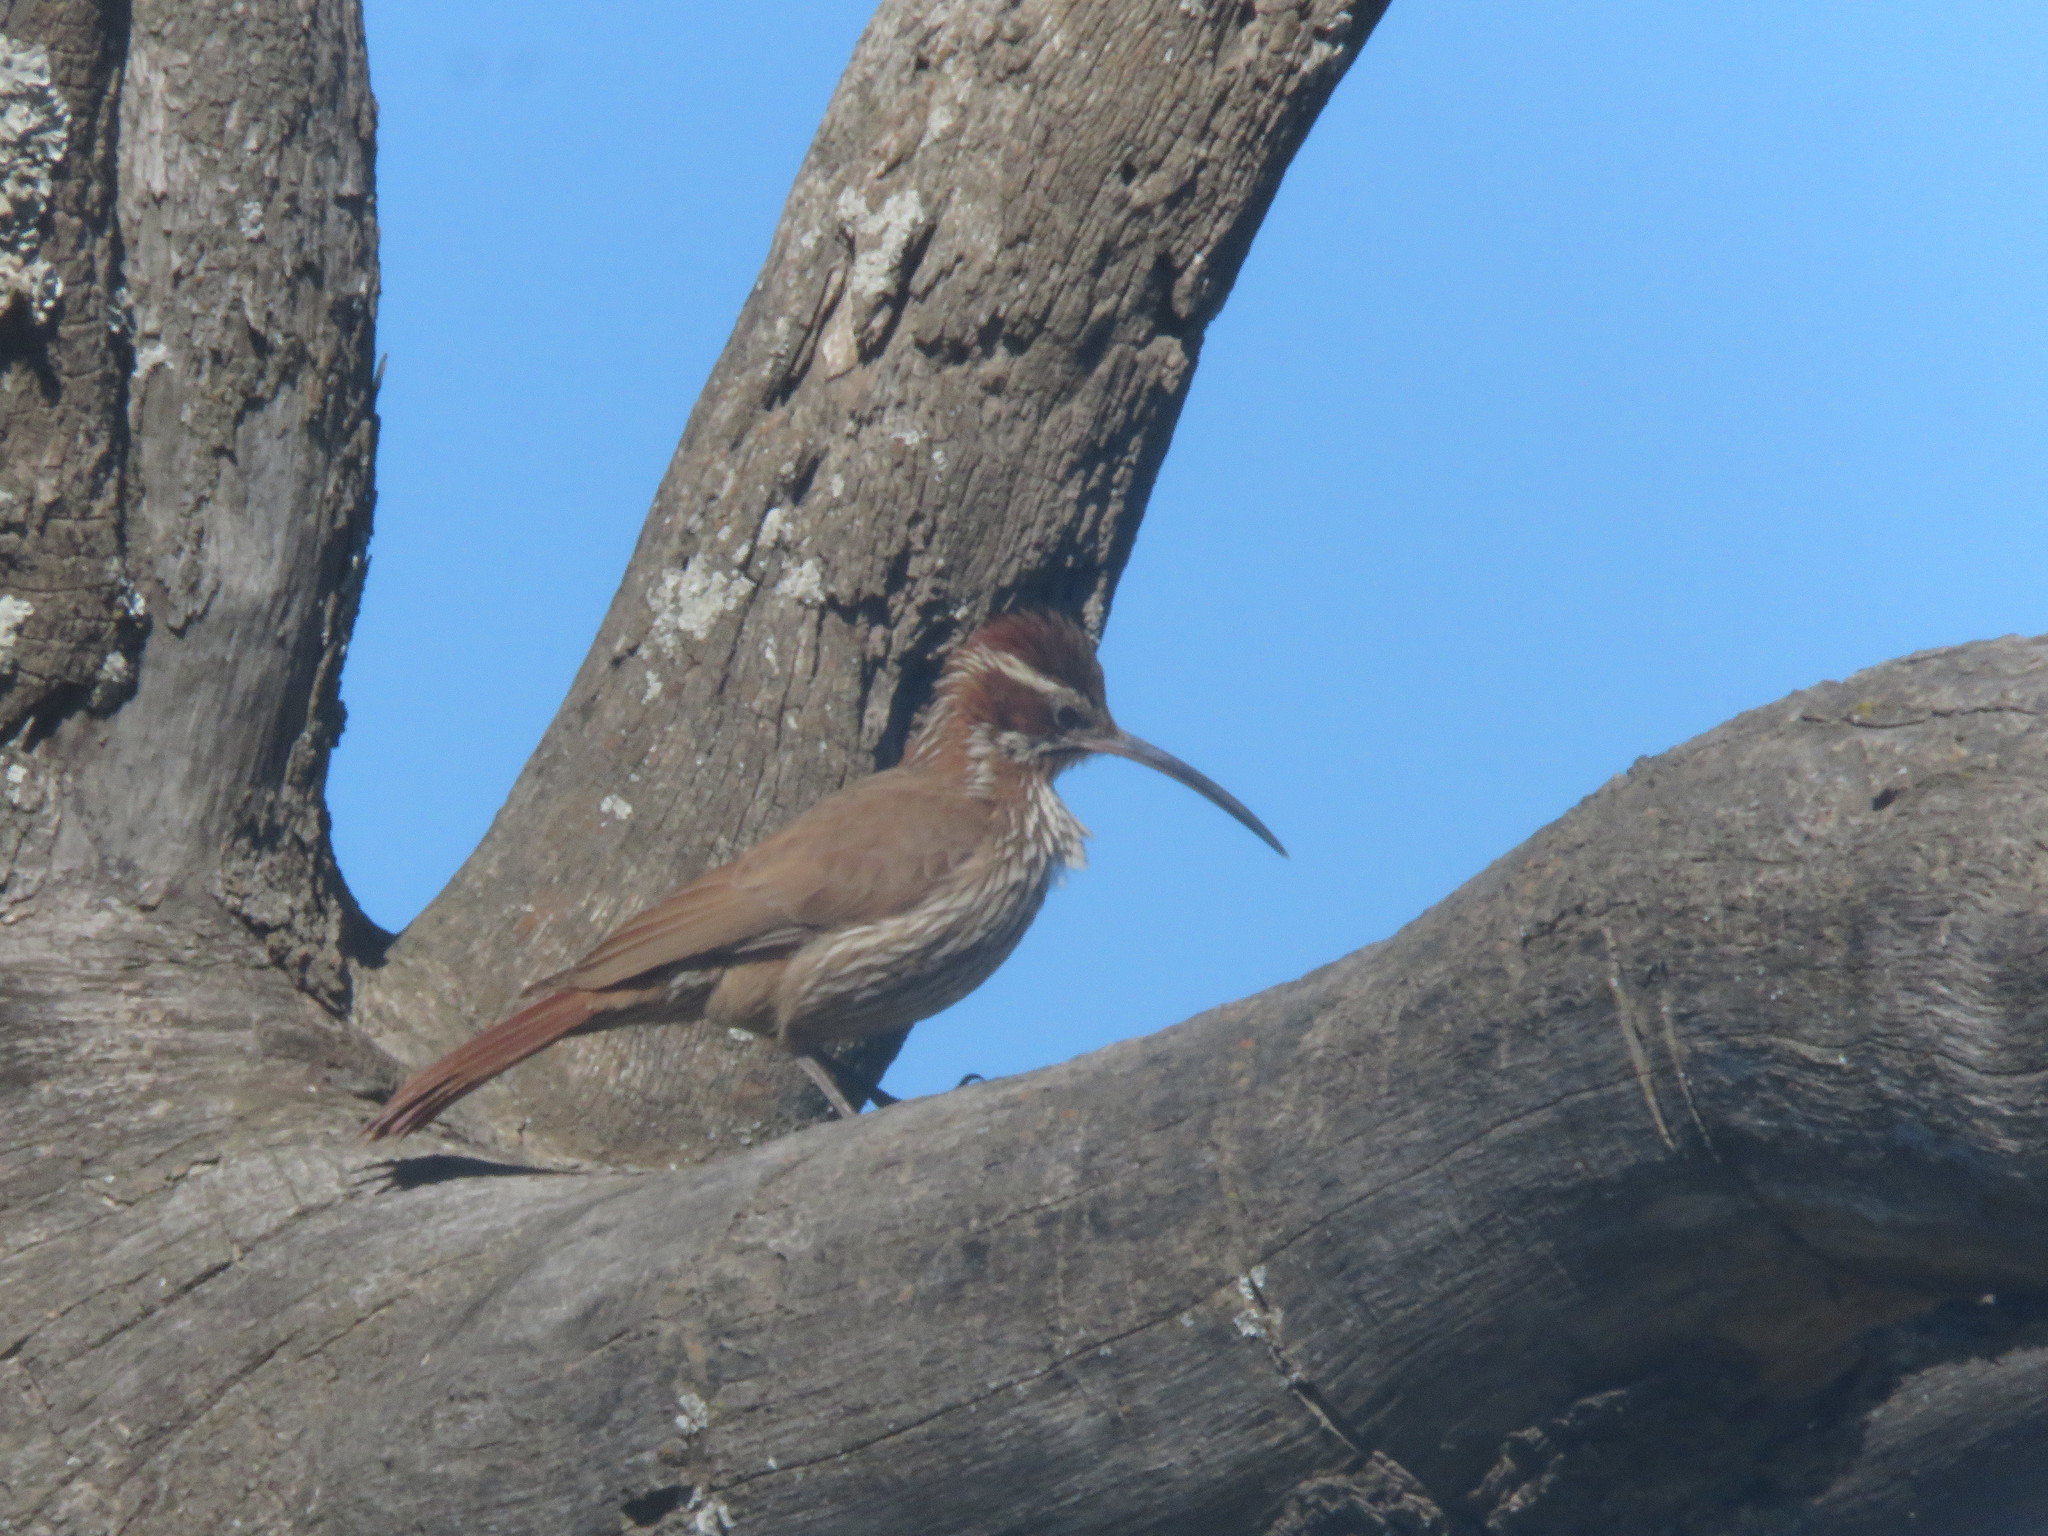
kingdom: Animalia
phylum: Chordata
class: Aves
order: Passeriformes
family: Furnariidae
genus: Drymornis
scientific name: Drymornis bridgesii
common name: Scimitar-billed woodcreeper
